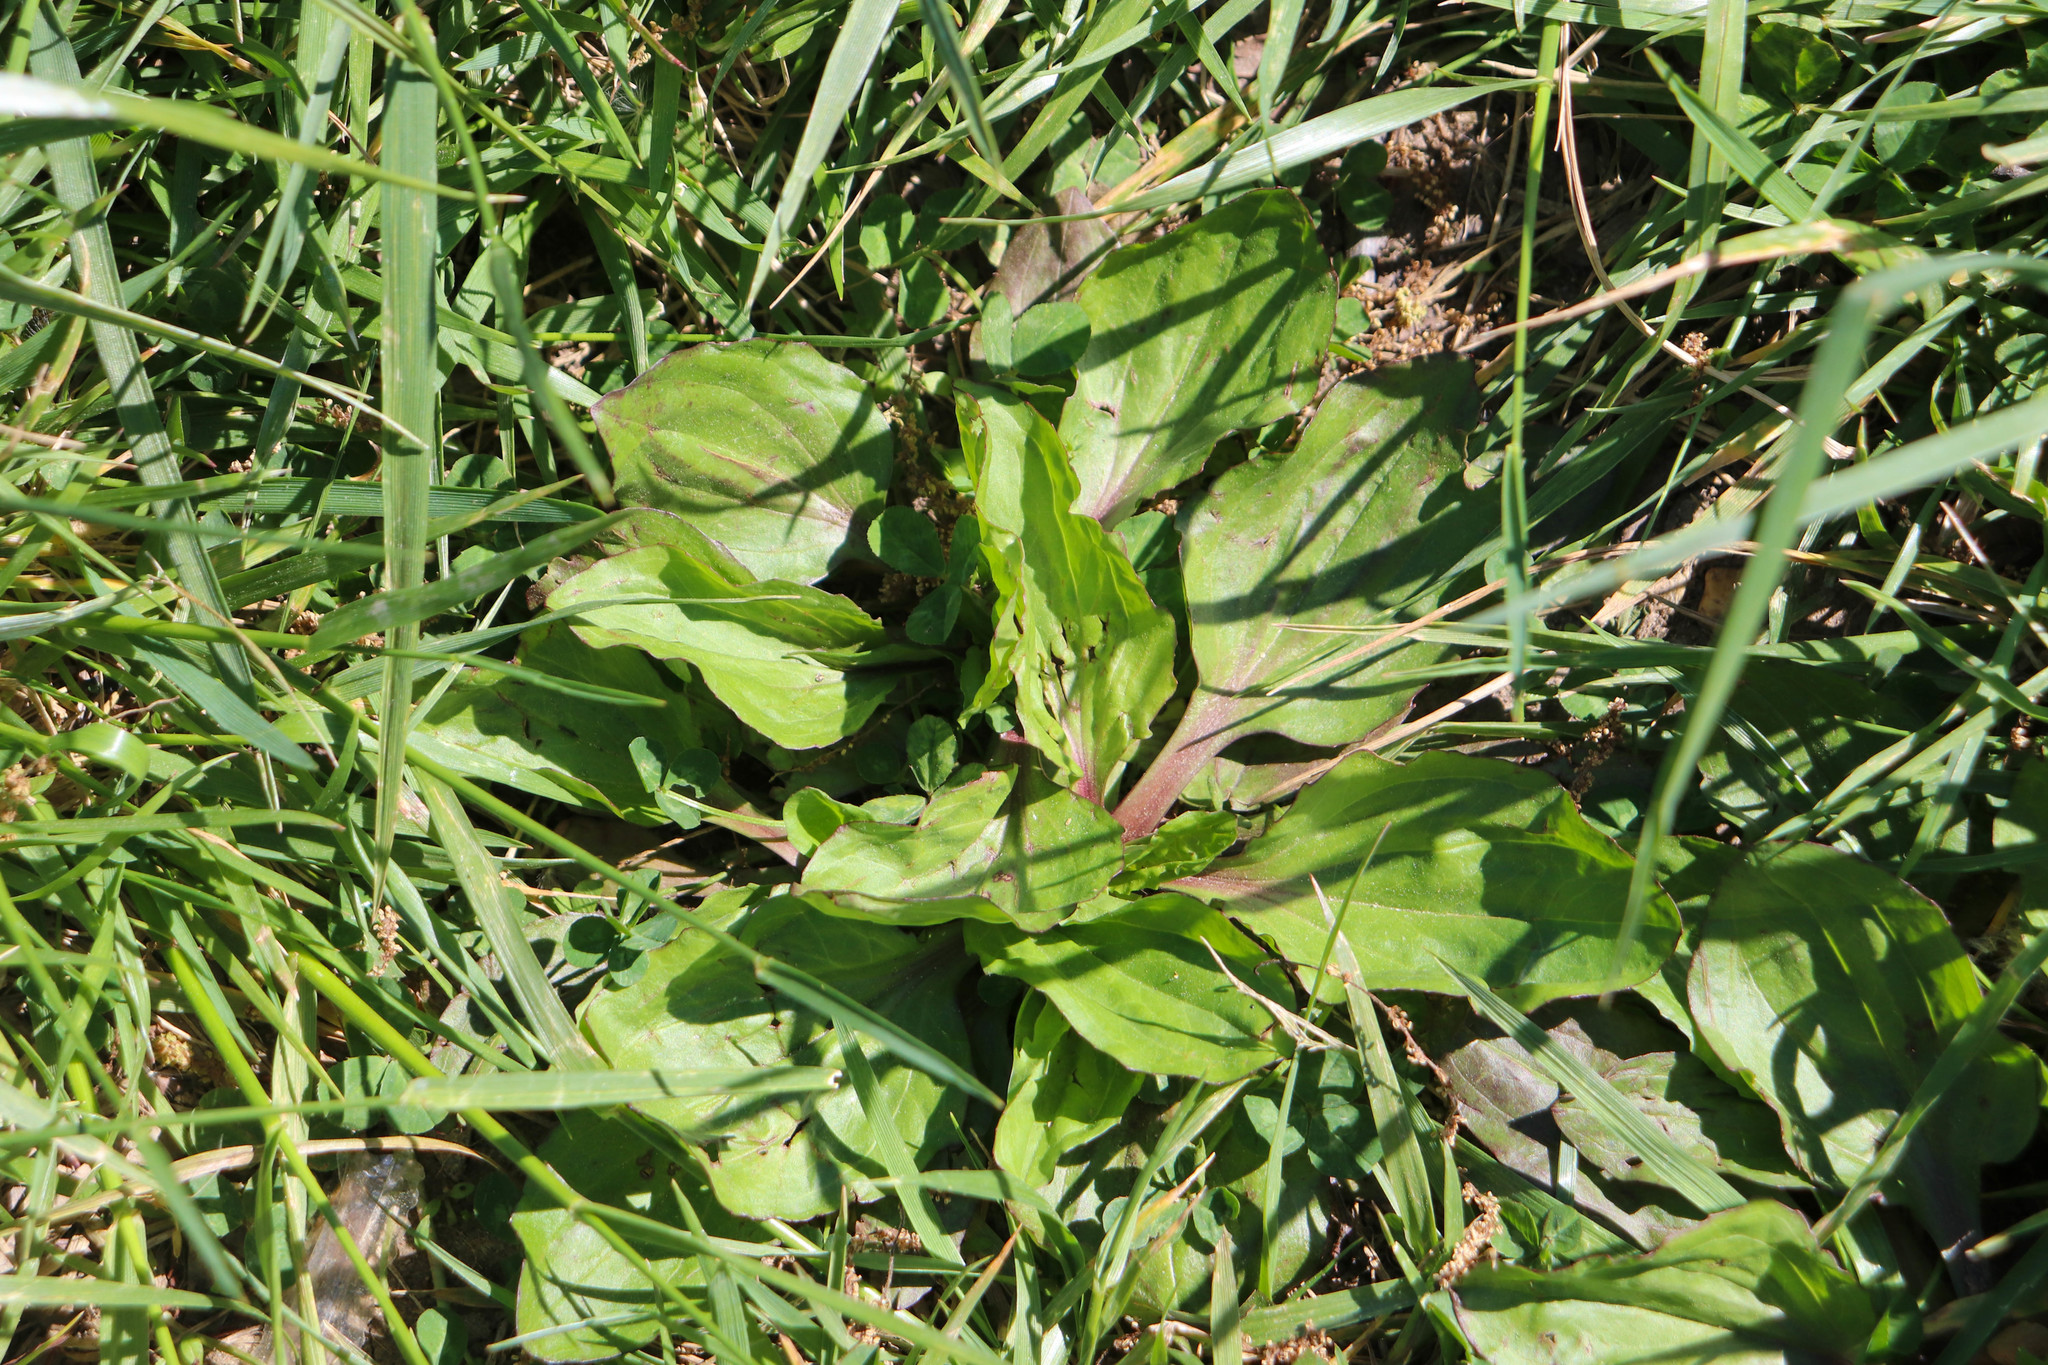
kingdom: Plantae
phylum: Tracheophyta
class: Magnoliopsida
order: Lamiales
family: Plantaginaceae
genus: Plantago
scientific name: Plantago rugelii
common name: American plantain
